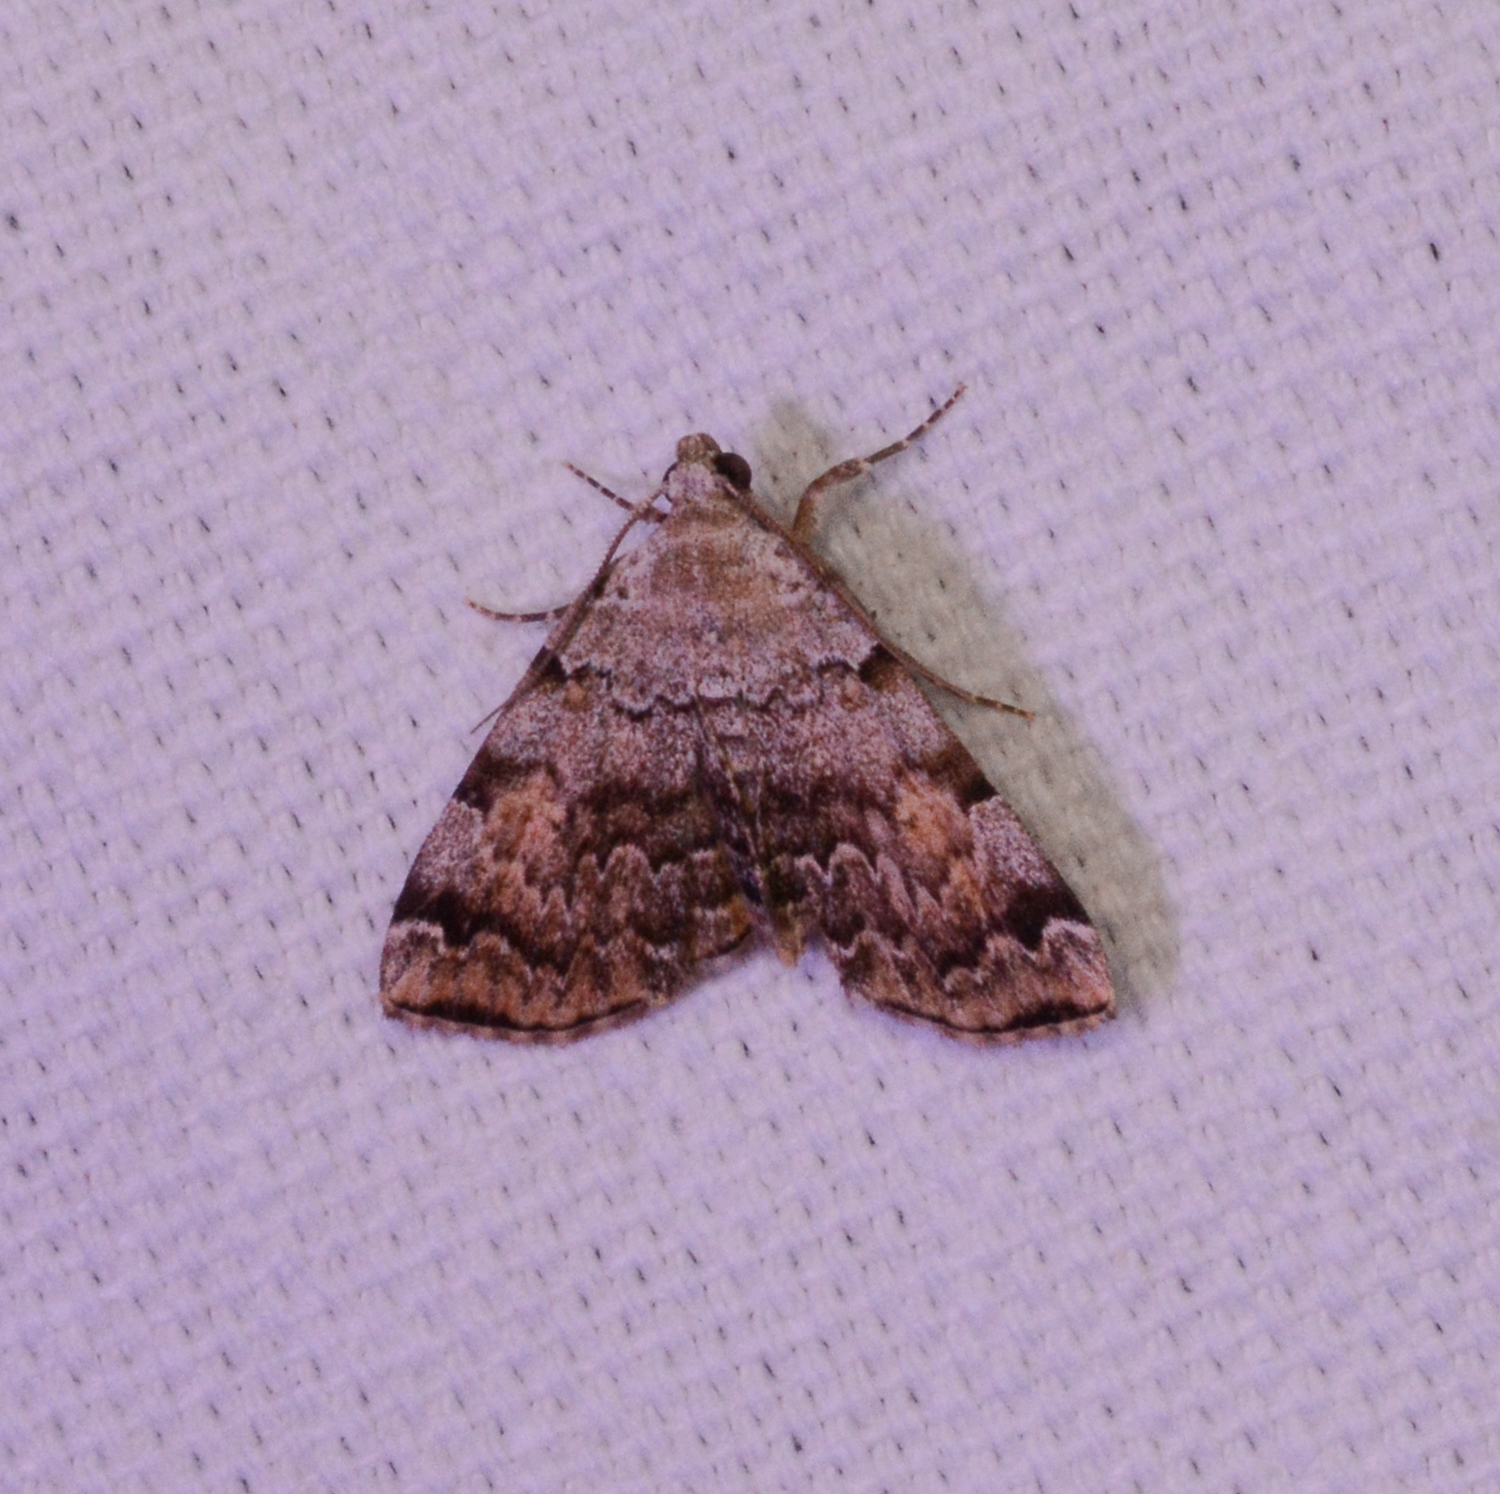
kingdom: Animalia
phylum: Arthropoda
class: Insecta
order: Lepidoptera
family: Erebidae
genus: Idia
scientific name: Idia americalis
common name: American idia moth
